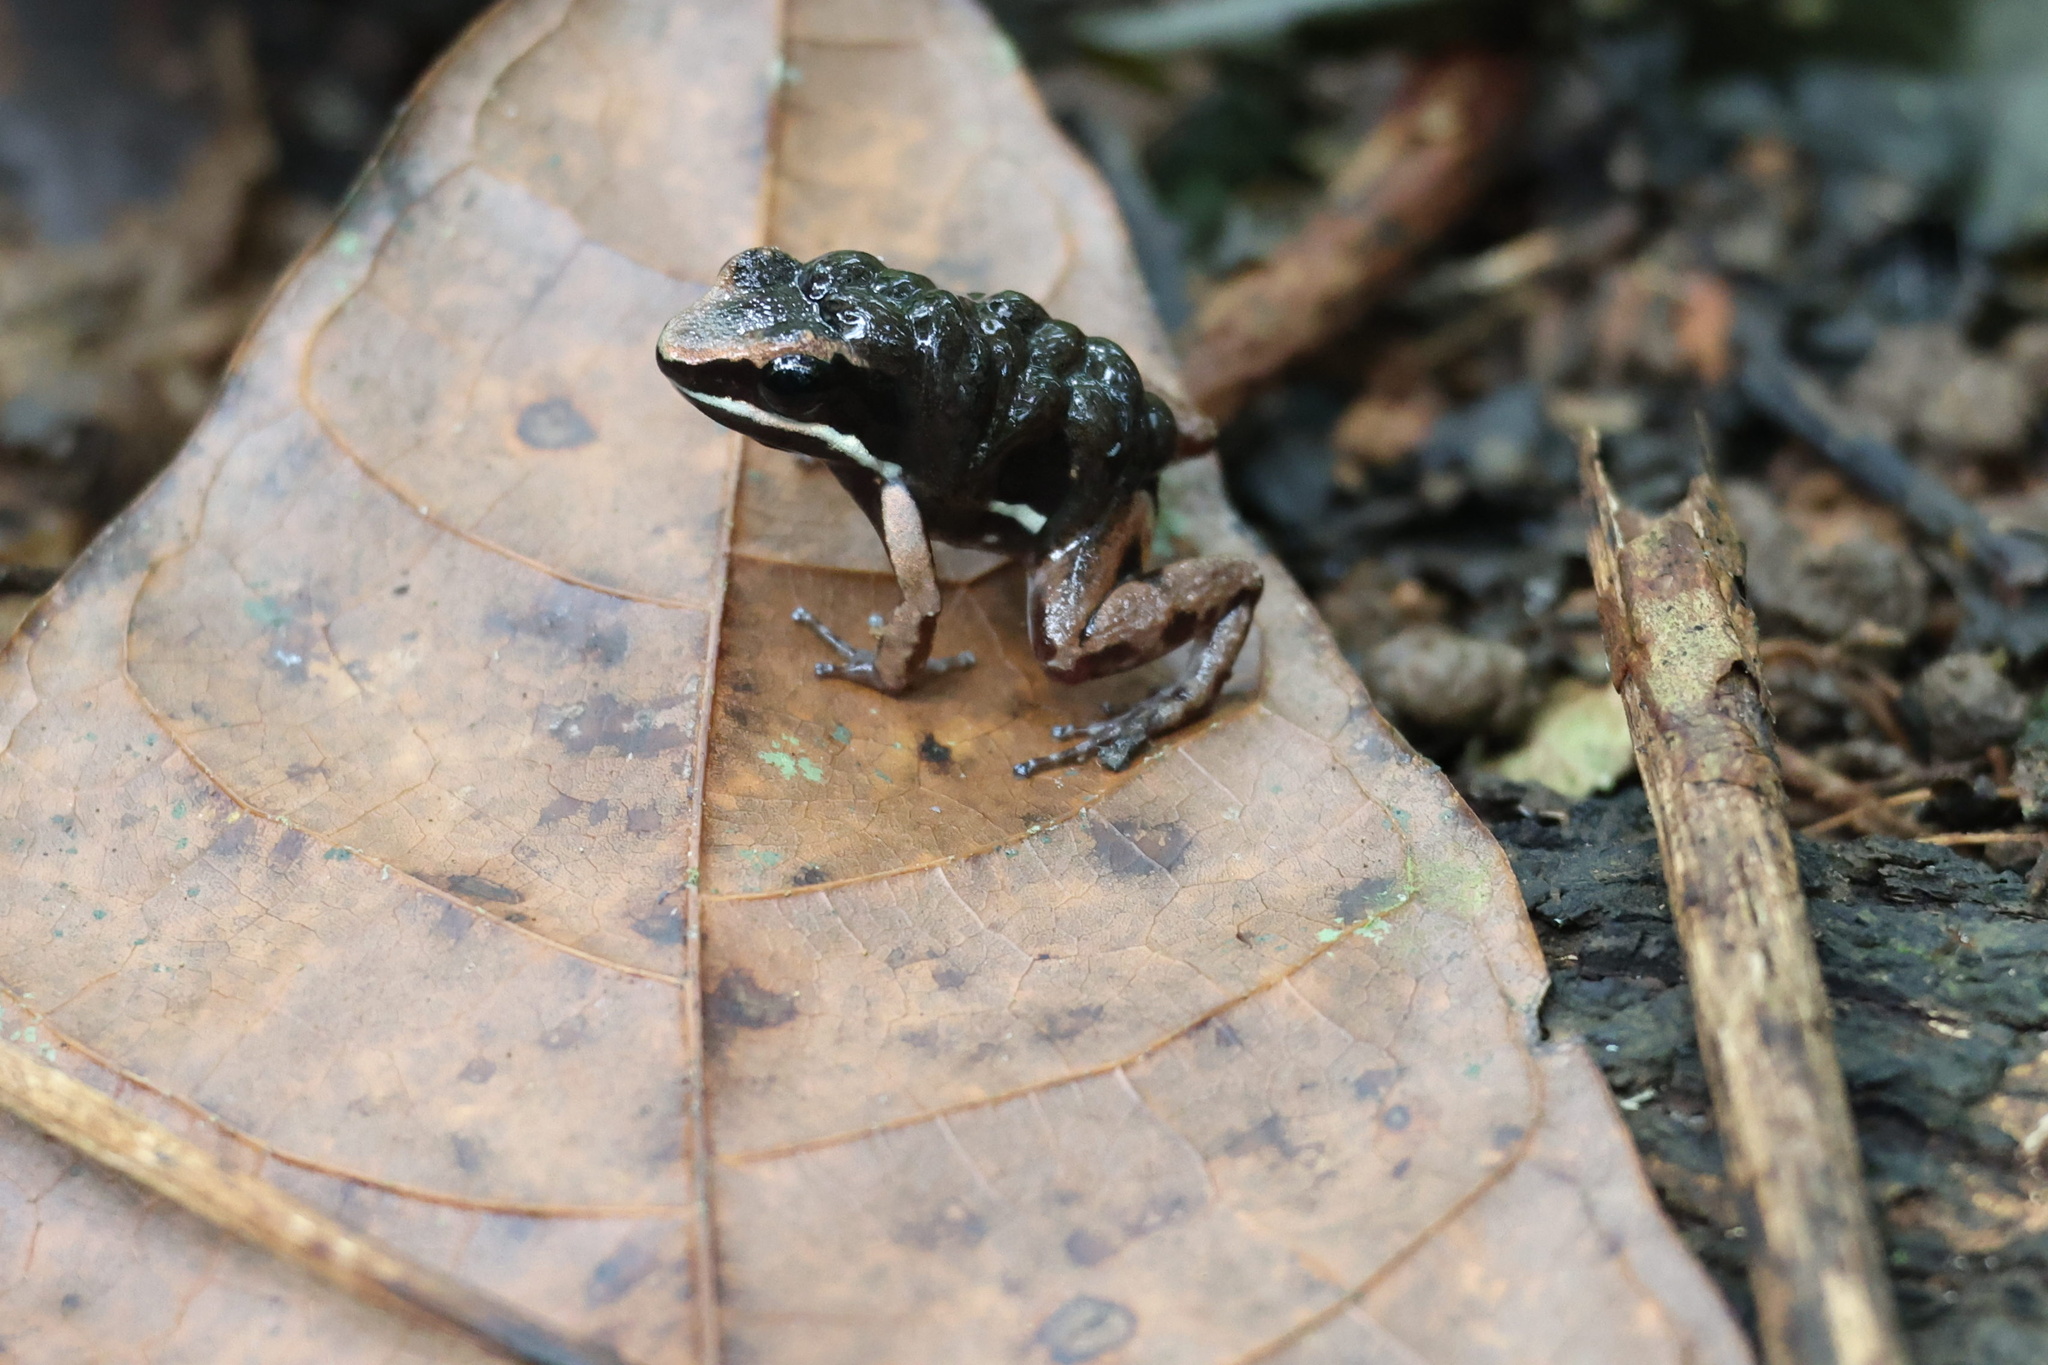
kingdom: Animalia
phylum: Chordata
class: Amphibia
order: Anura
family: Aromobatidae
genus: Allobates
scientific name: Allobates talamancae
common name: Talamanca rocket frog
